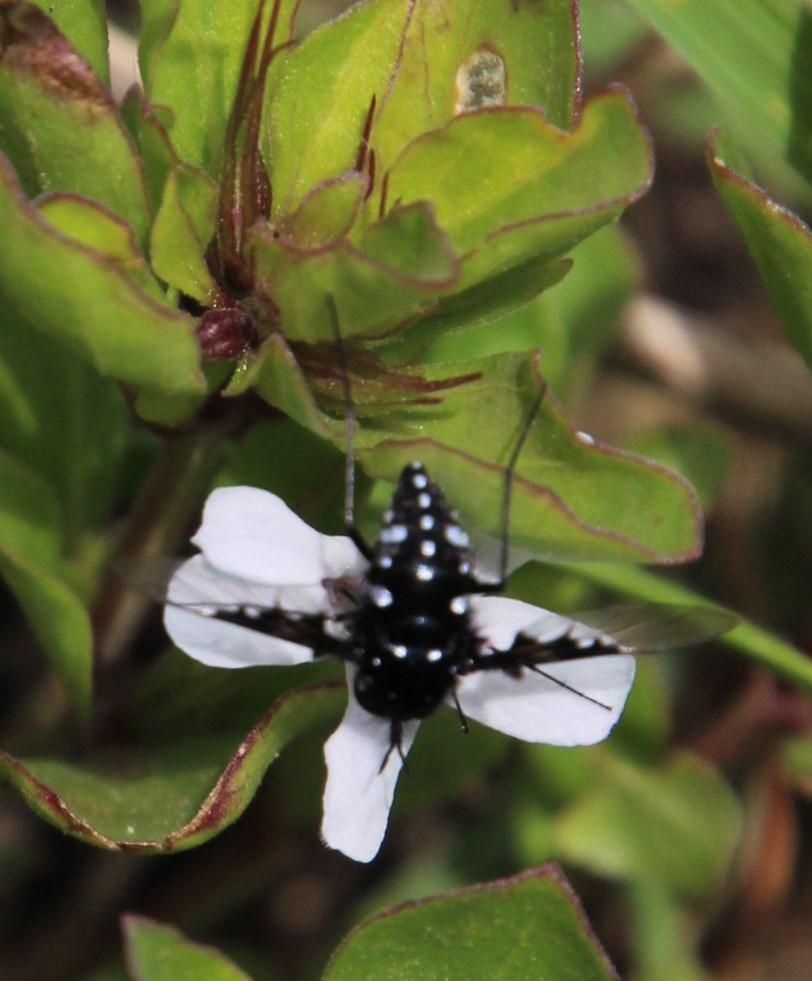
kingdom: Plantae
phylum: Tracheophyta
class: Magnoliopsida
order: Lamiales
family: Acanthaceae
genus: Dyschoriste
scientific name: Dyschoriste radicans
